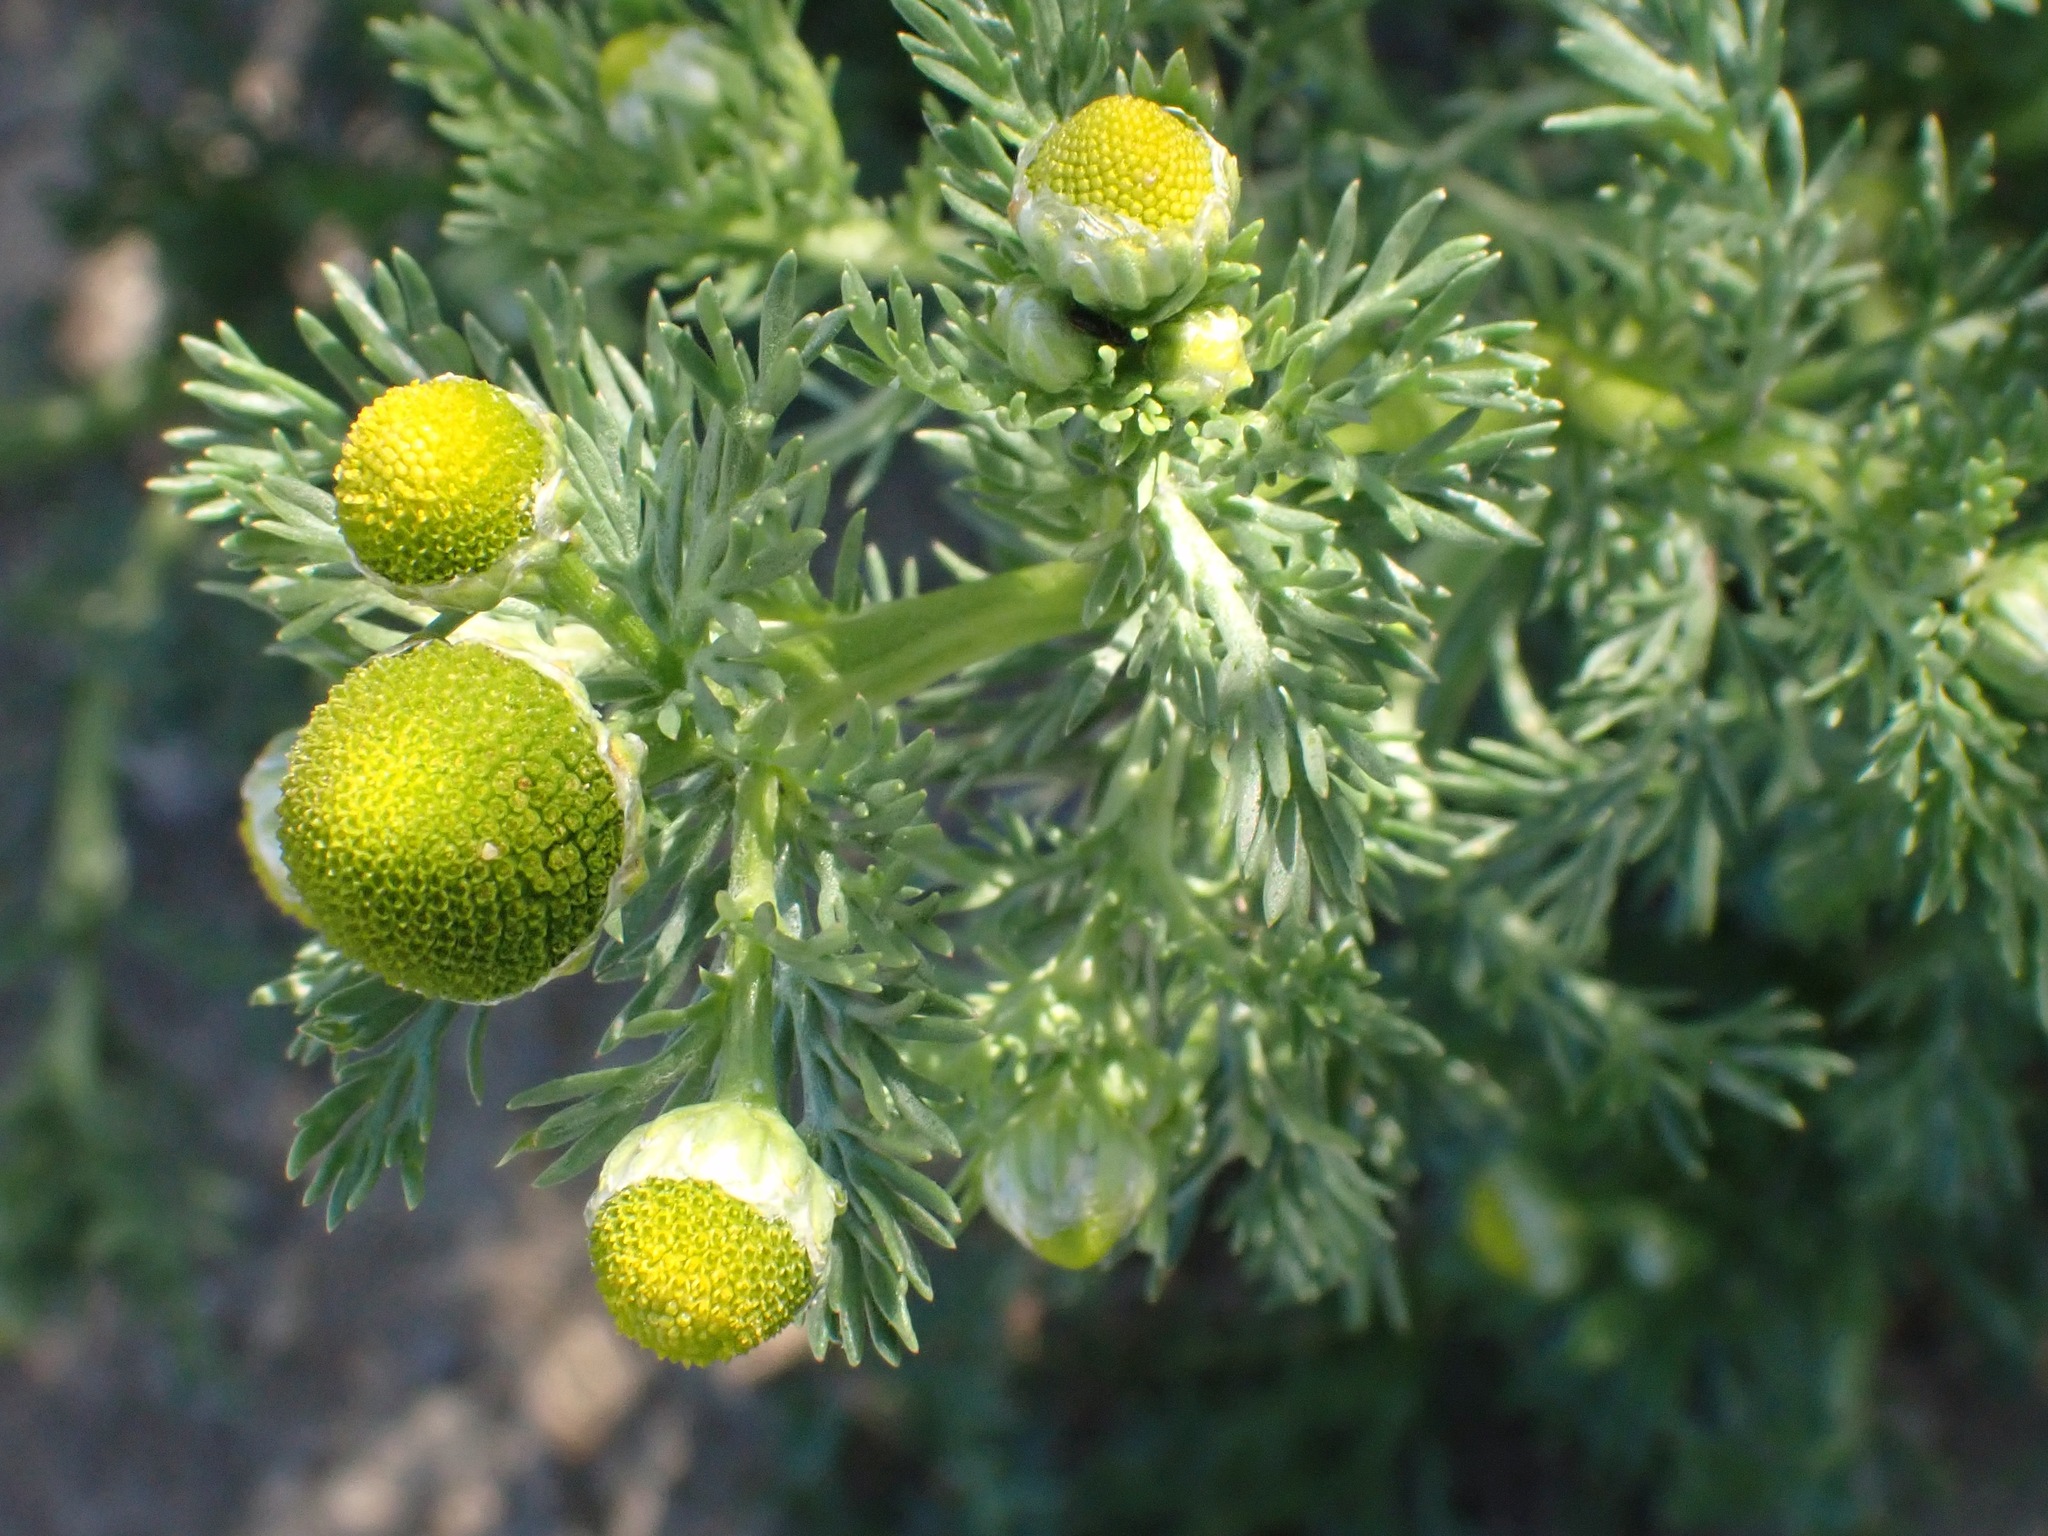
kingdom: Plantae
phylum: Tracheophyta
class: Magnoliopsida
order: Asterales
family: Asteraceae
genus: Matricaria
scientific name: Matricaria discoidea
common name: Disc mayweed
